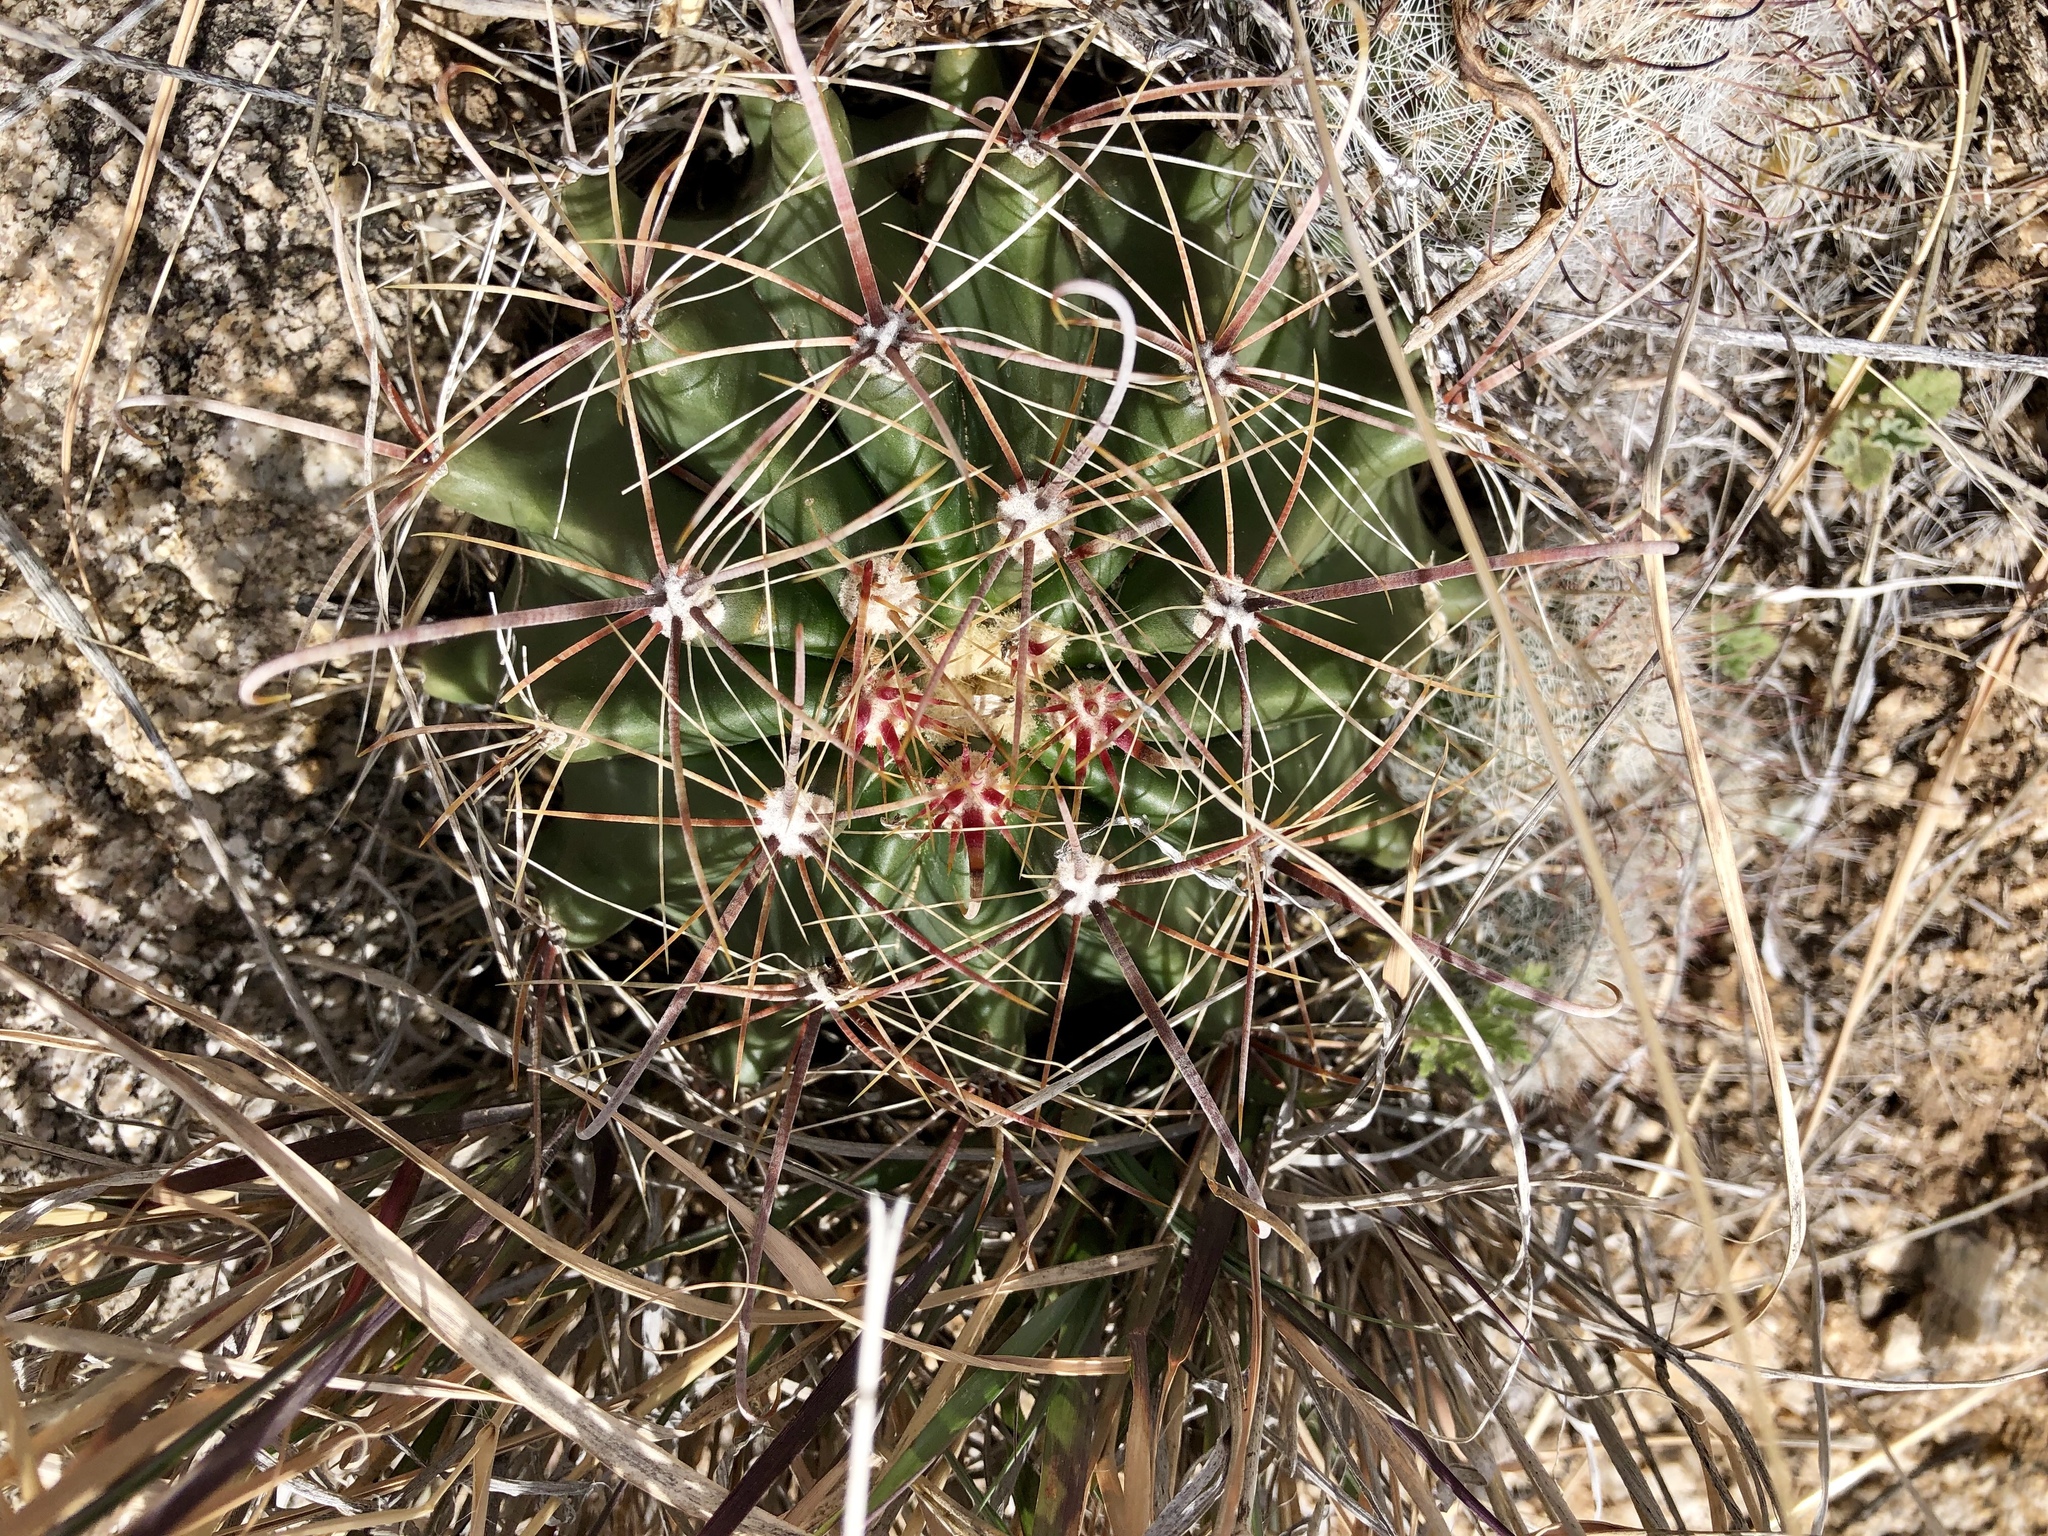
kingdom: Plantae
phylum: Tracheophyta
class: Magnoliopsida
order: Caryophyllales
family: Cactaceae
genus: Ferocactus
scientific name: Ferocactus wislizeni
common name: Candy barrel cactus
